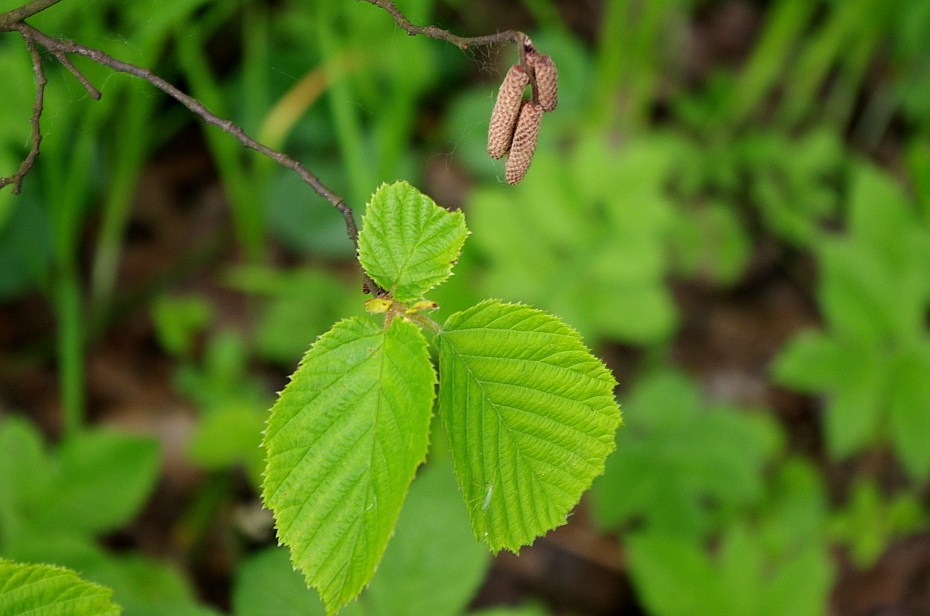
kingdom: Plantae
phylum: Tracheophyta
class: Magnoliopsida
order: Fagales
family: Betulaceae
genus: Corylus
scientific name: Corylus avellana
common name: European hazel
